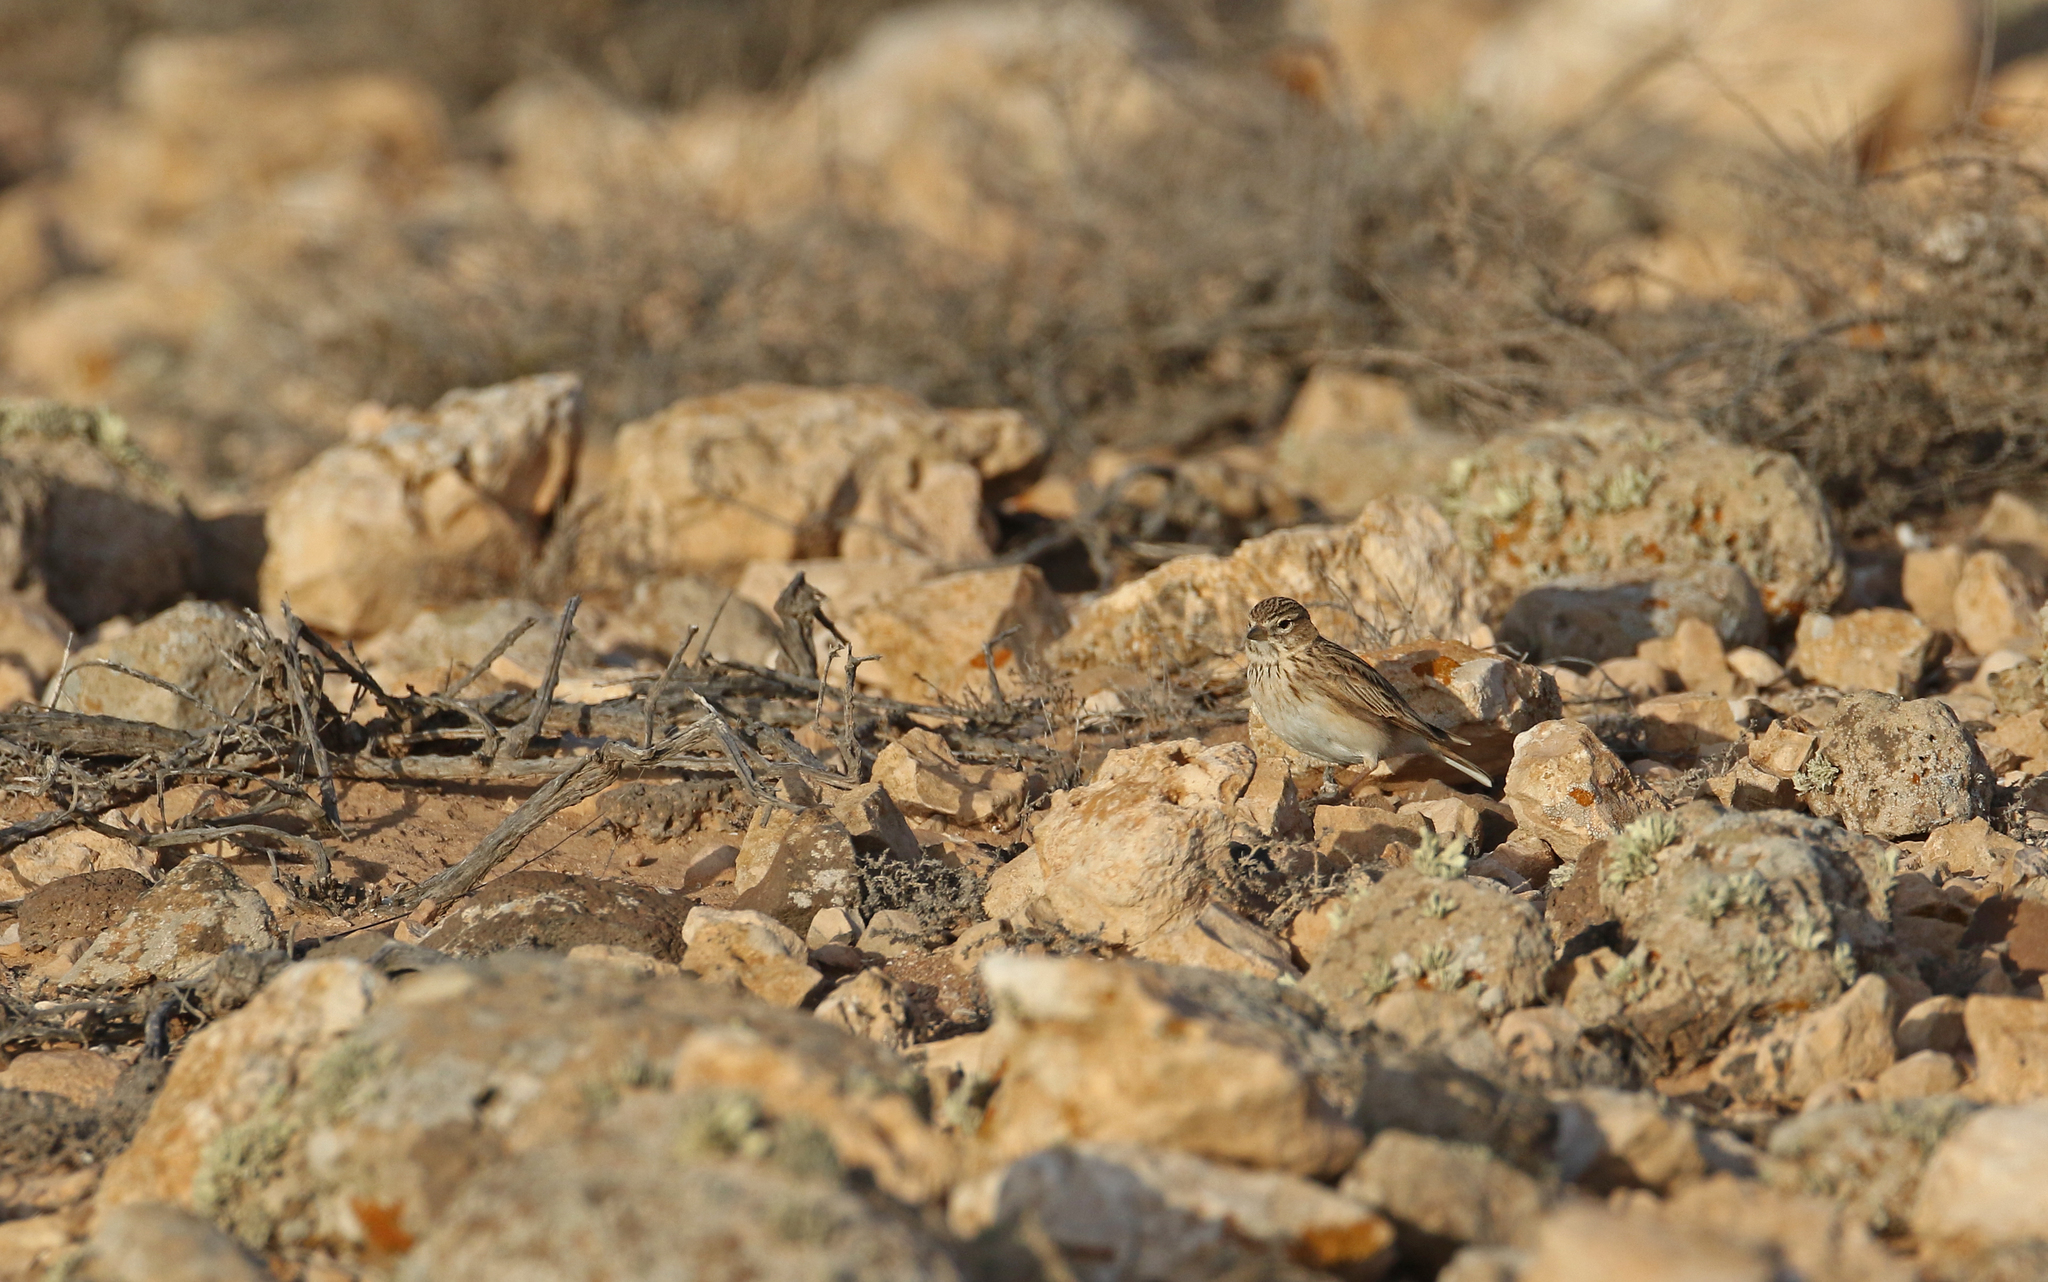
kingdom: Animalia
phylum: Chordata
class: Aves
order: Passeriformes
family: Alaudidae
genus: Calandrella
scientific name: Calandrella rufescens
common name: Lesser short-toed lark
